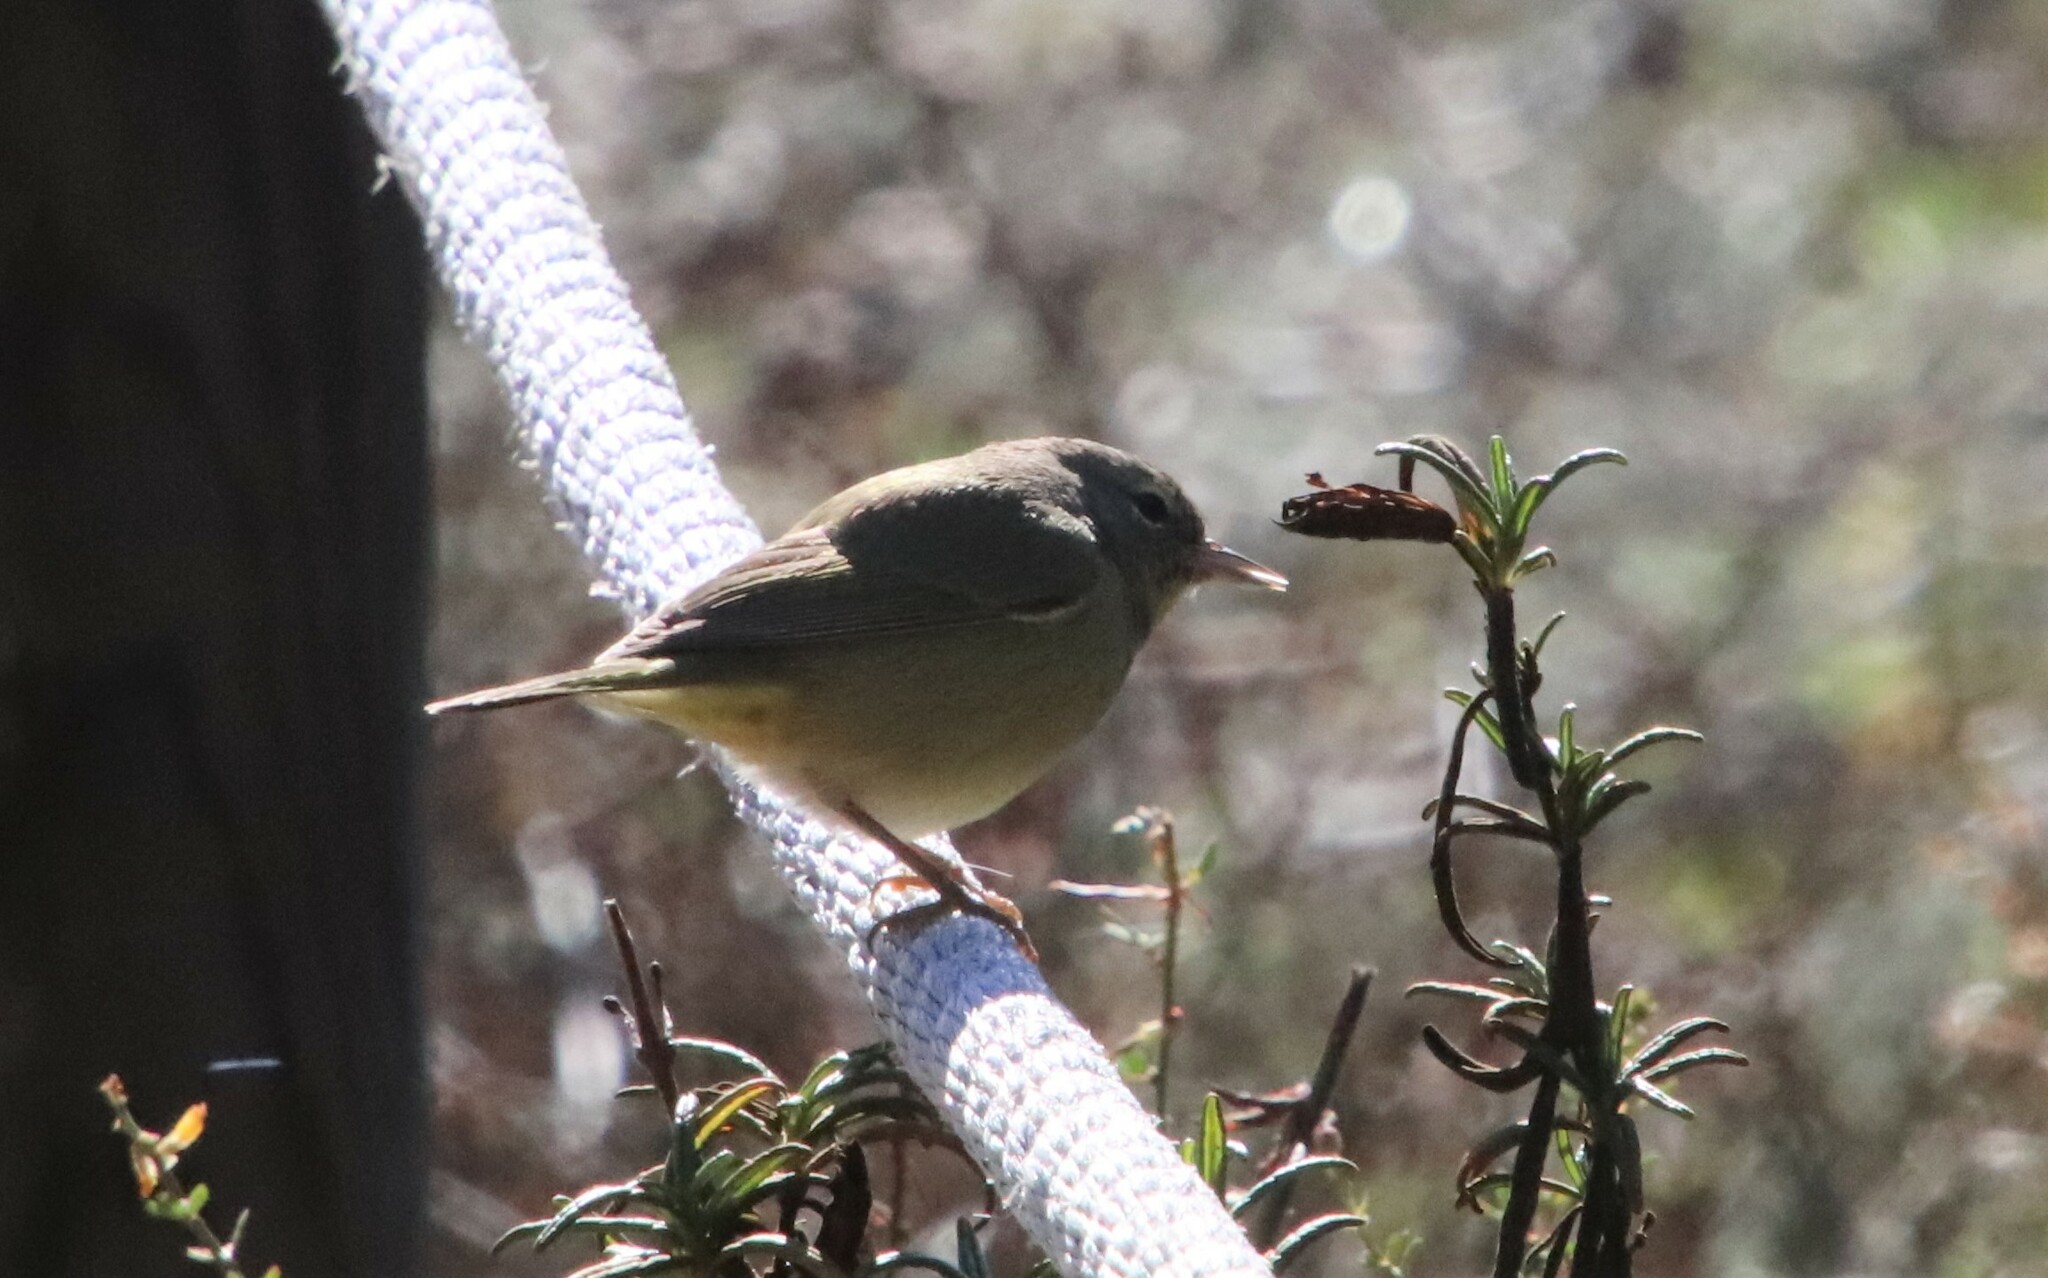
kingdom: Animalia
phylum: Chordata
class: Aves
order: Passeriformes
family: Parulidae
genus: Leiothlypis
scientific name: Leiothlypis celata
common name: Orange-crowned warbler
